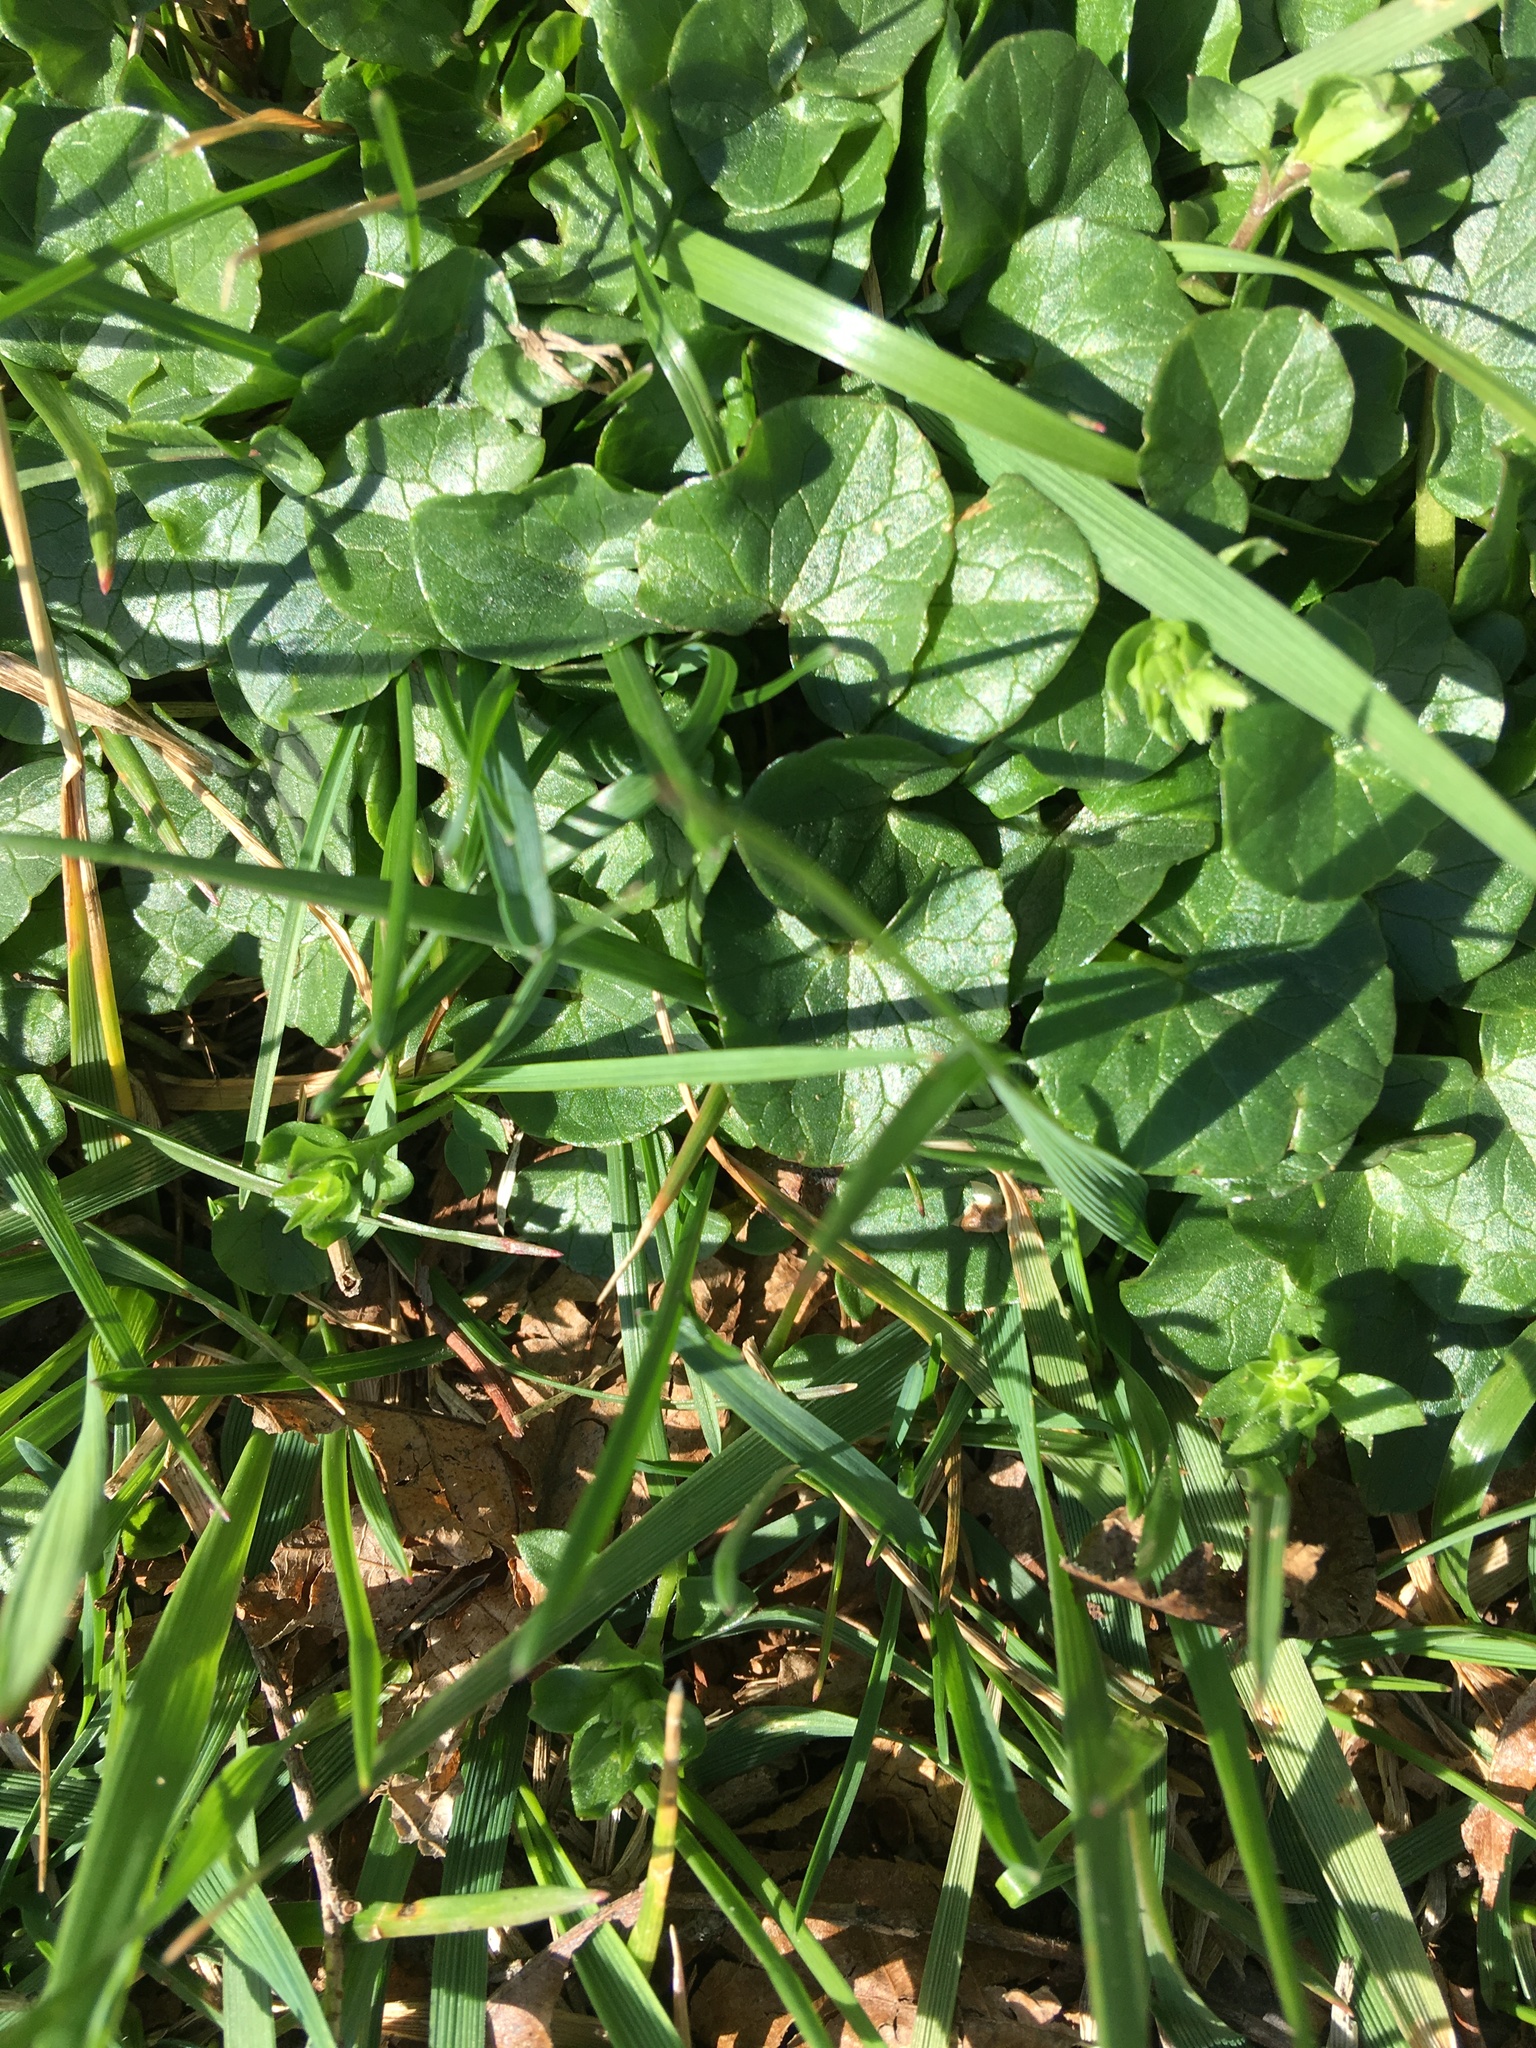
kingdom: Plantae
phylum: Tracheophyta
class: Magnoliopsida
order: Ranunculales
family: Ranunculaceae
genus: Ficaria
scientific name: Ficaria verna
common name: Lesser celandine
